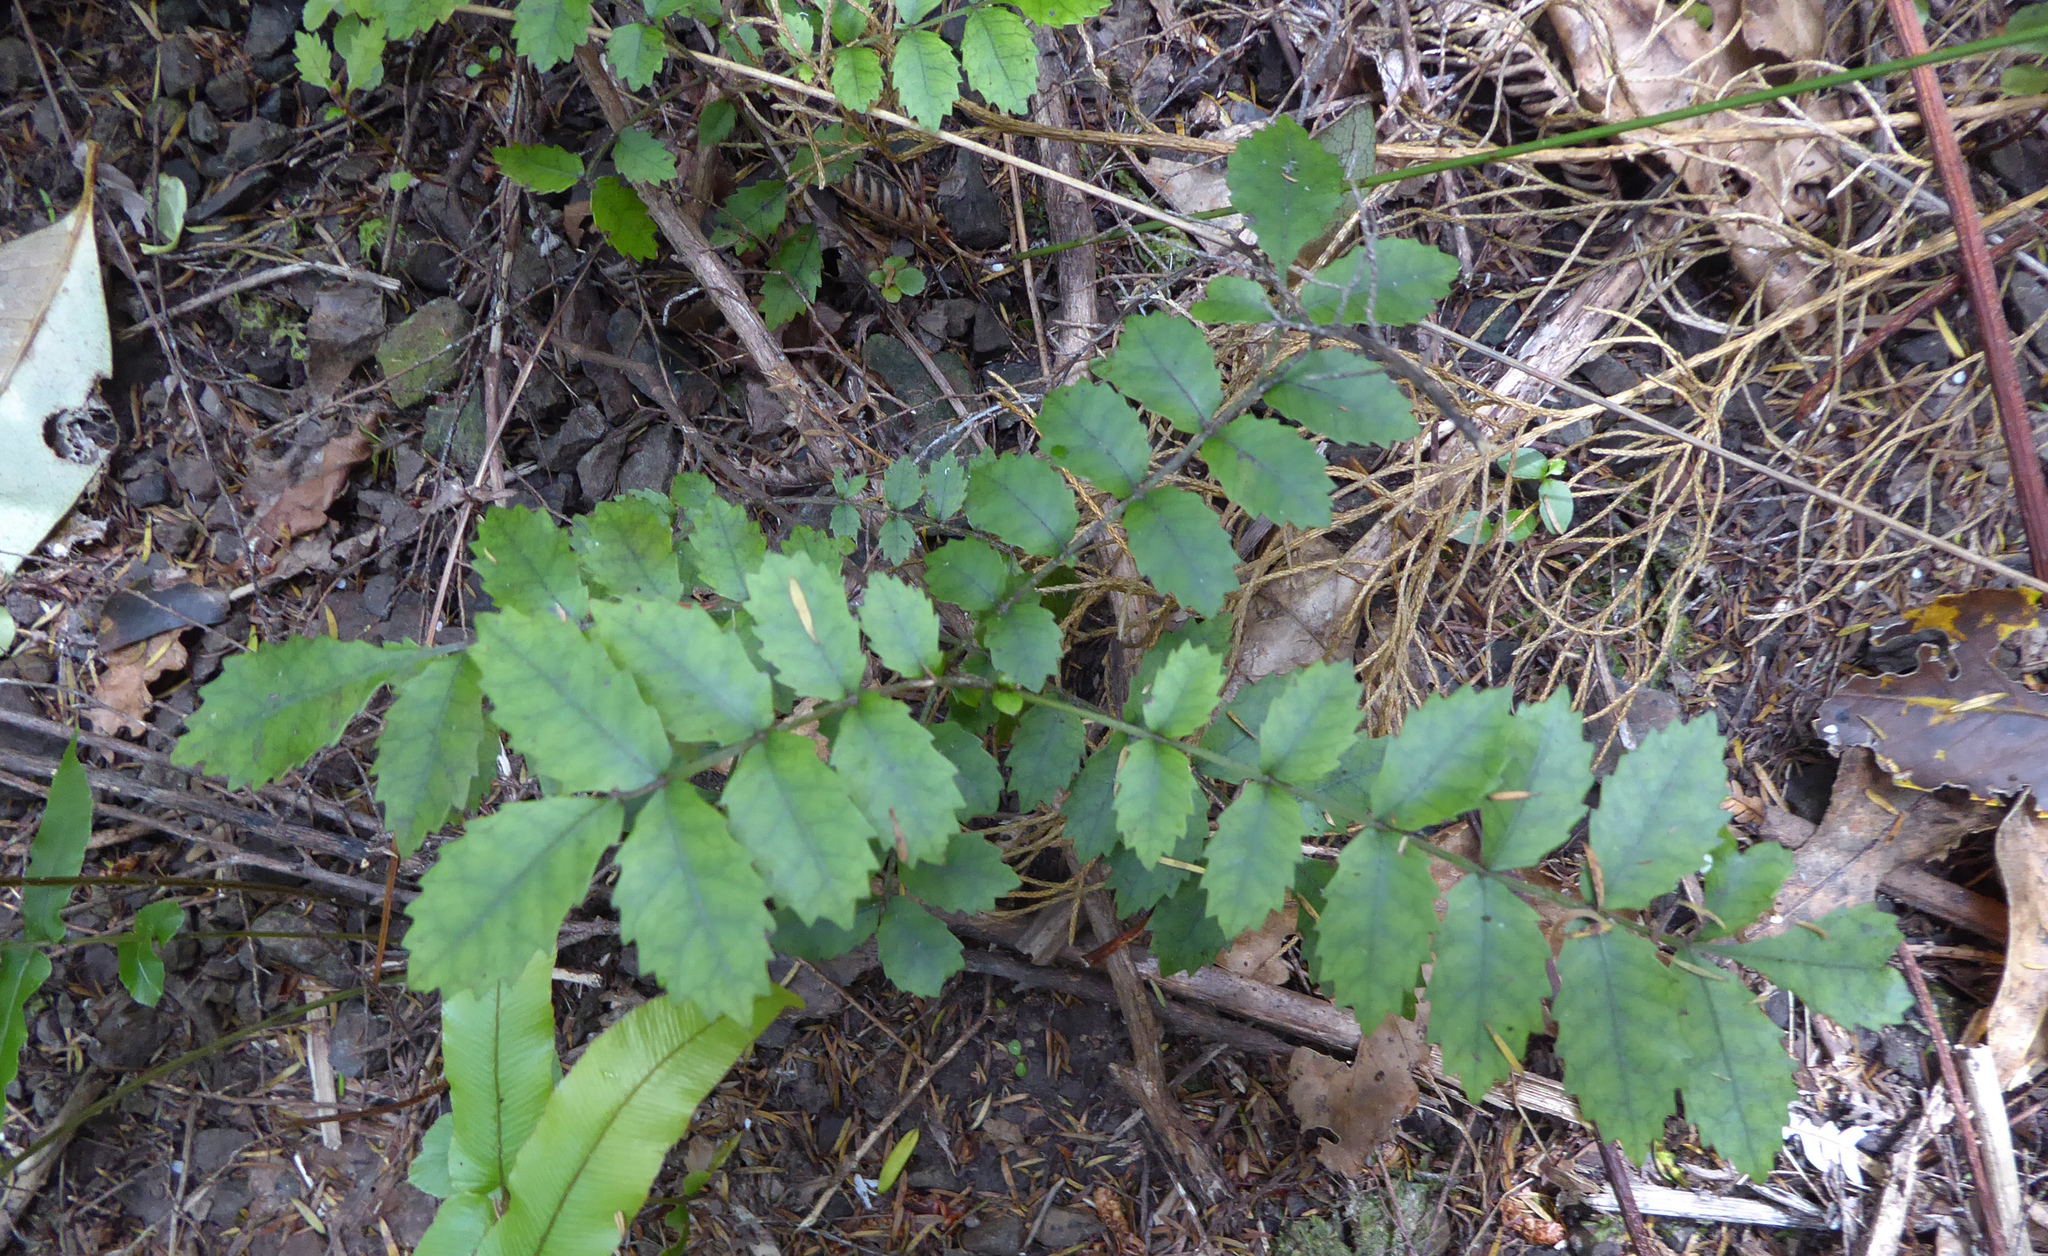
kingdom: Plantae
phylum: Tracheophyta
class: Magnoliopsida
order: Oxalidales
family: Cunoniaceae
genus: Pterophylla
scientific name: Pterophylla sylvicola
